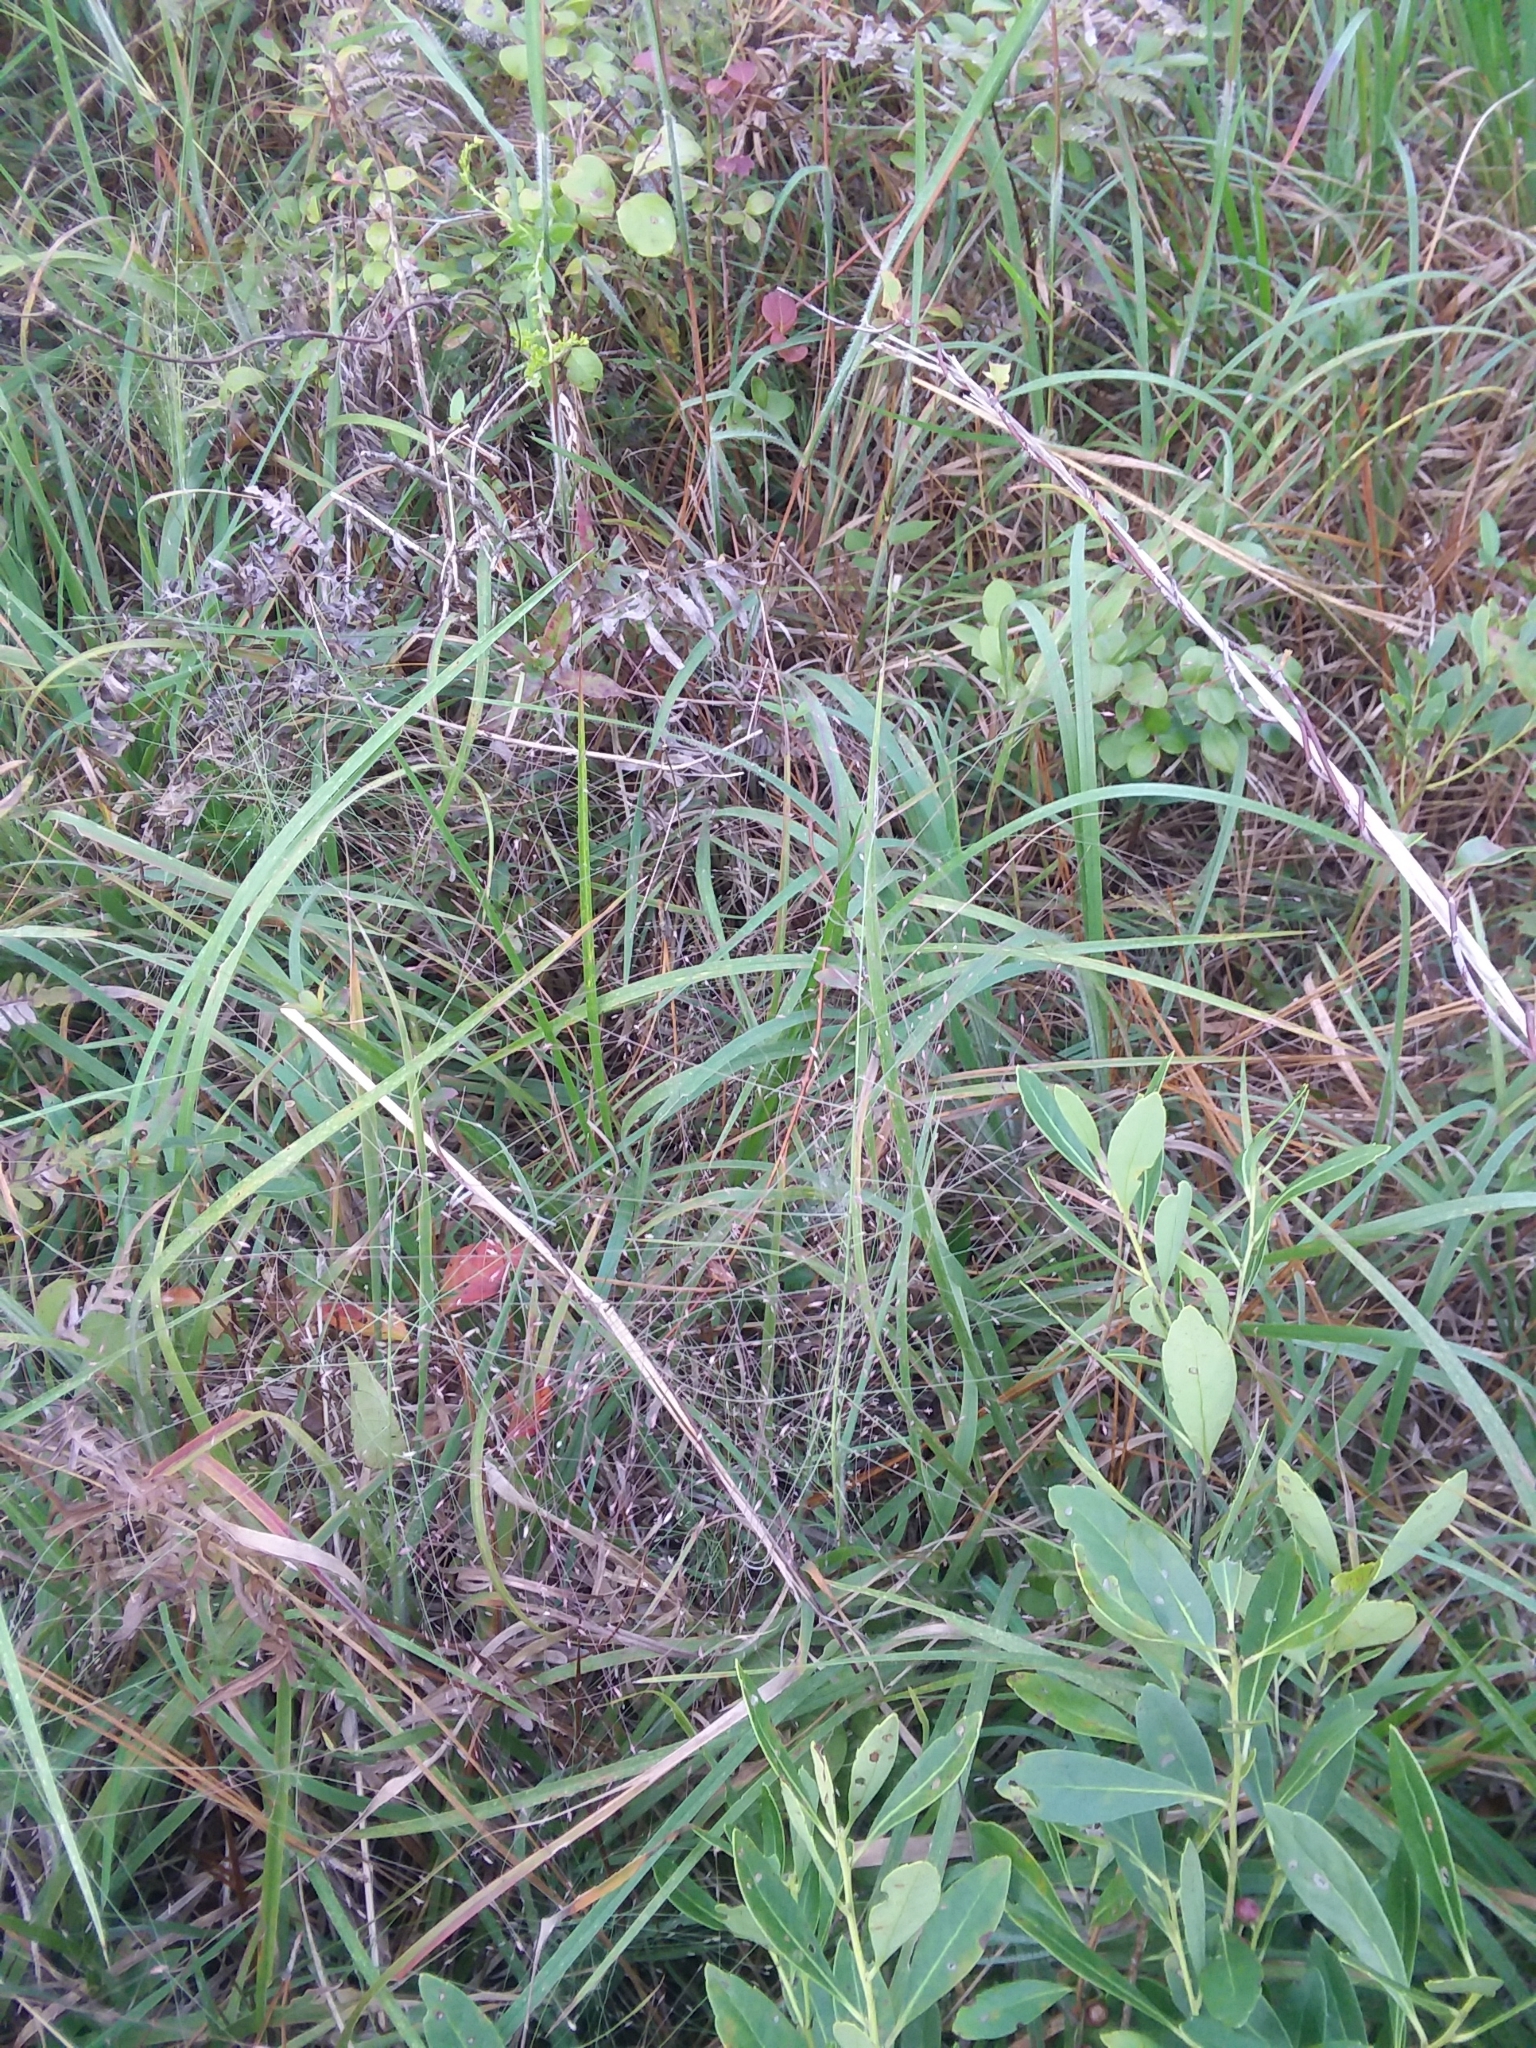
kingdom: Plantae
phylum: Tracheophyta
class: Liliopsida
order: Poales
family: Poaceae
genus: Eragrostis
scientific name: Eragrostis spectabilis
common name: Petticoat-climber
